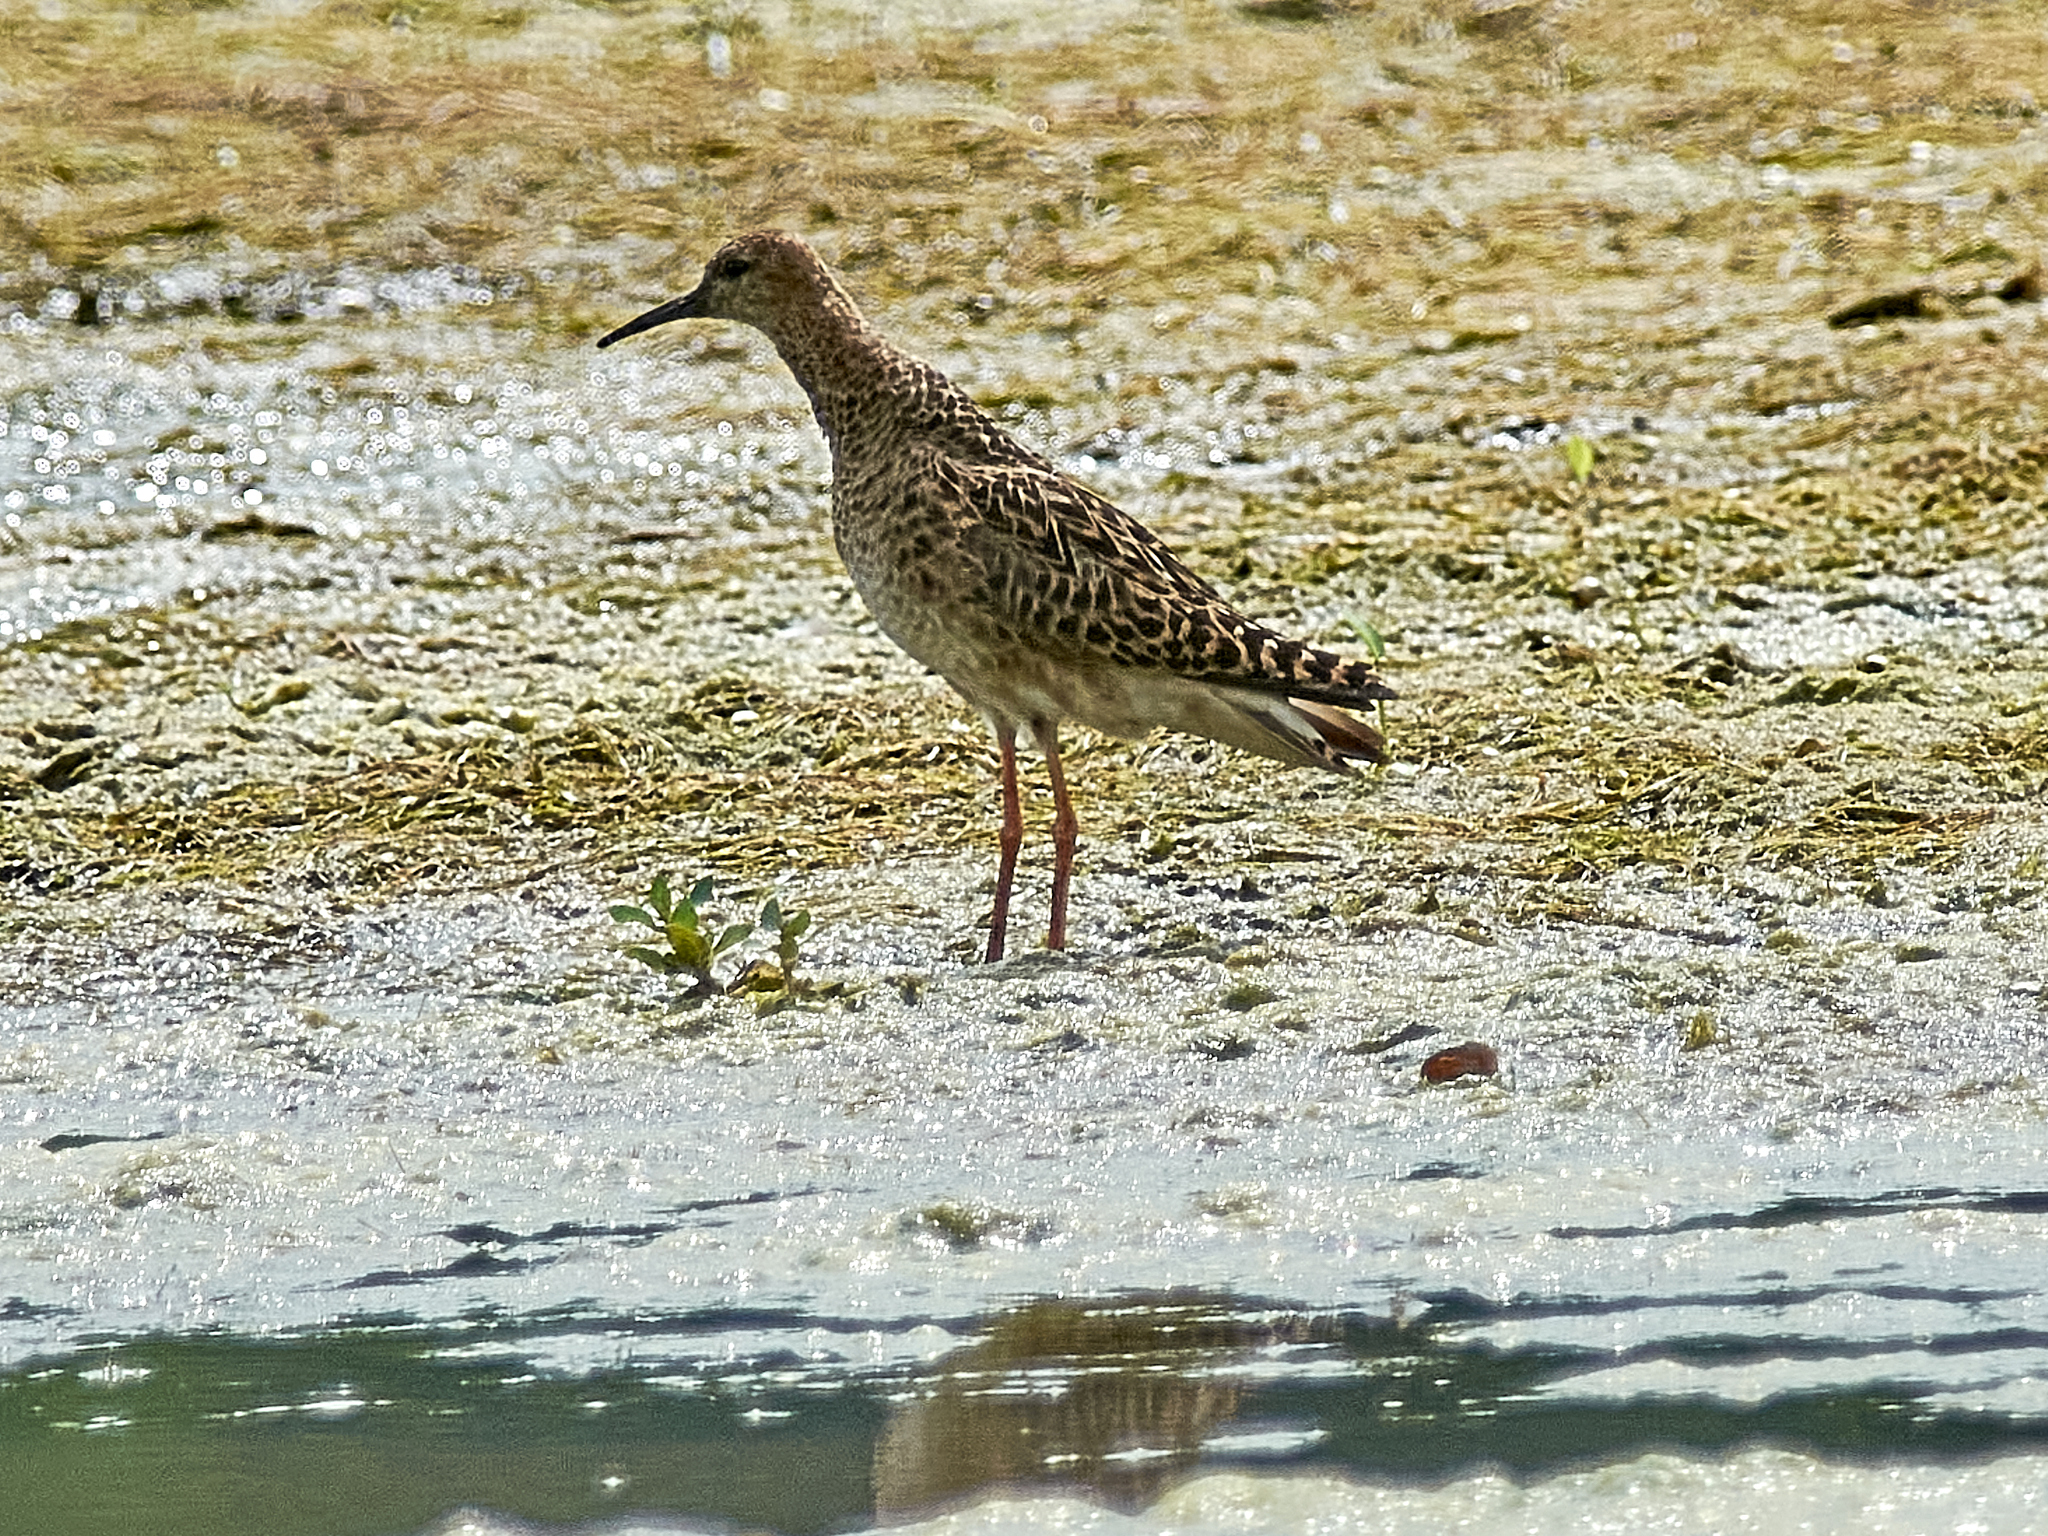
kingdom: Animalia
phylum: Chordata
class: Aves
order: Charadriiformes
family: Scolopacidae
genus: Calidris
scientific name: Calidris pugnax
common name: Ruff
